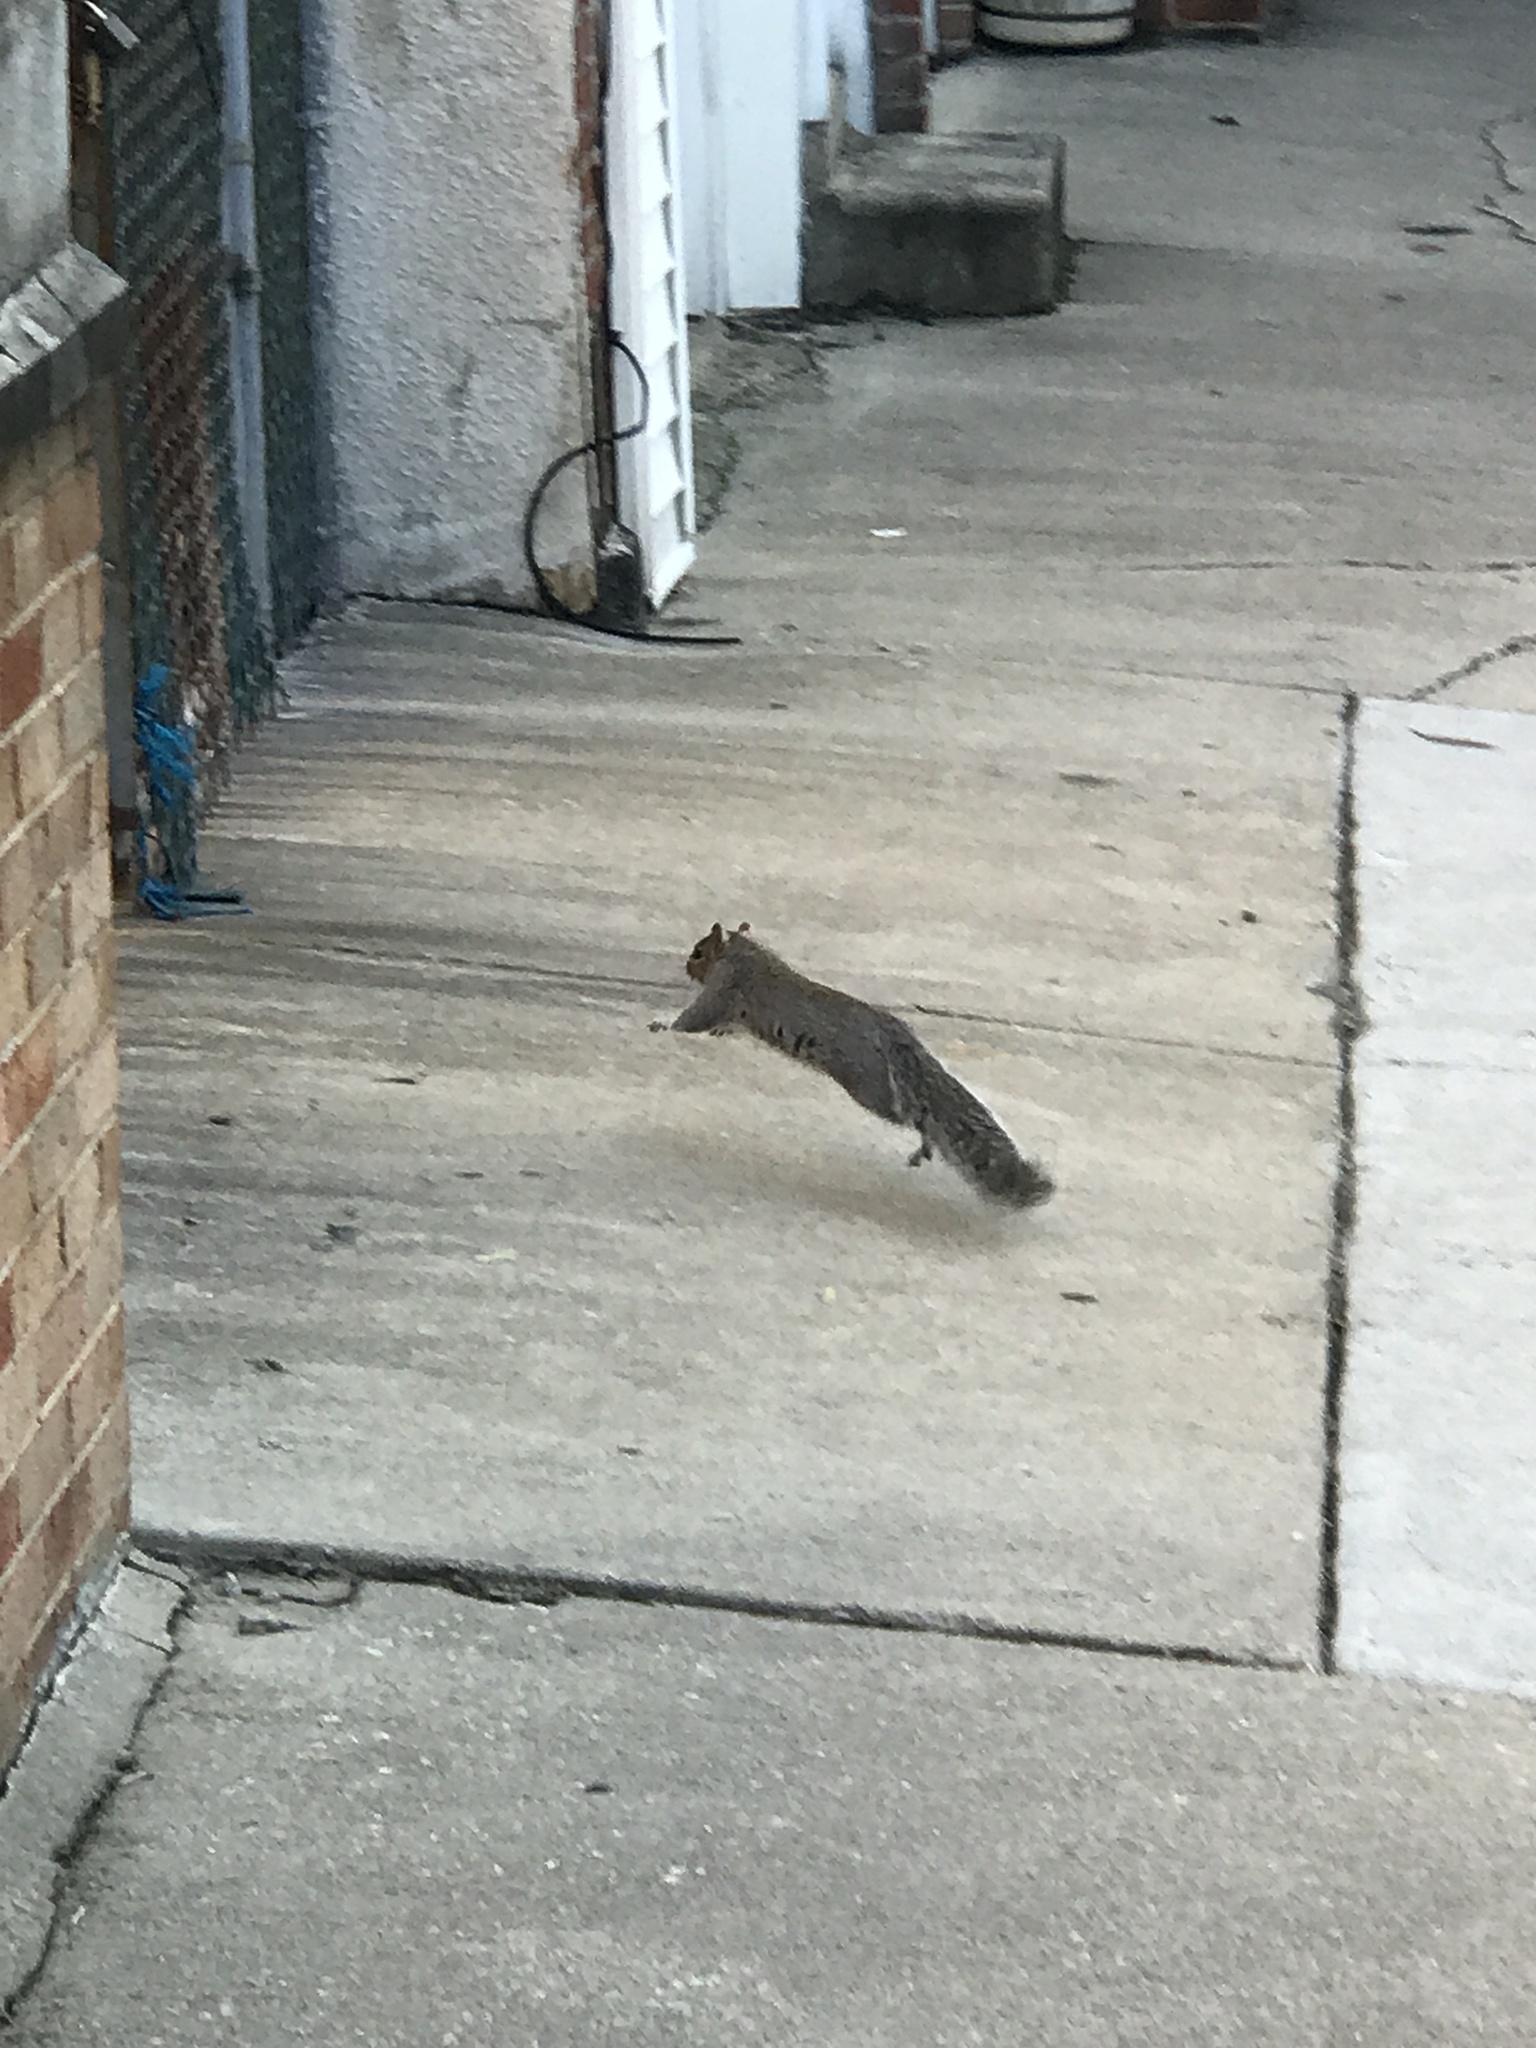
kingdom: Animalia
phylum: Chordata
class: Mammalia
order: Rodentia
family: Sciuridae
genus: Sciurus
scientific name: Sciurus carolinensis
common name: Eastern gray squirrel
